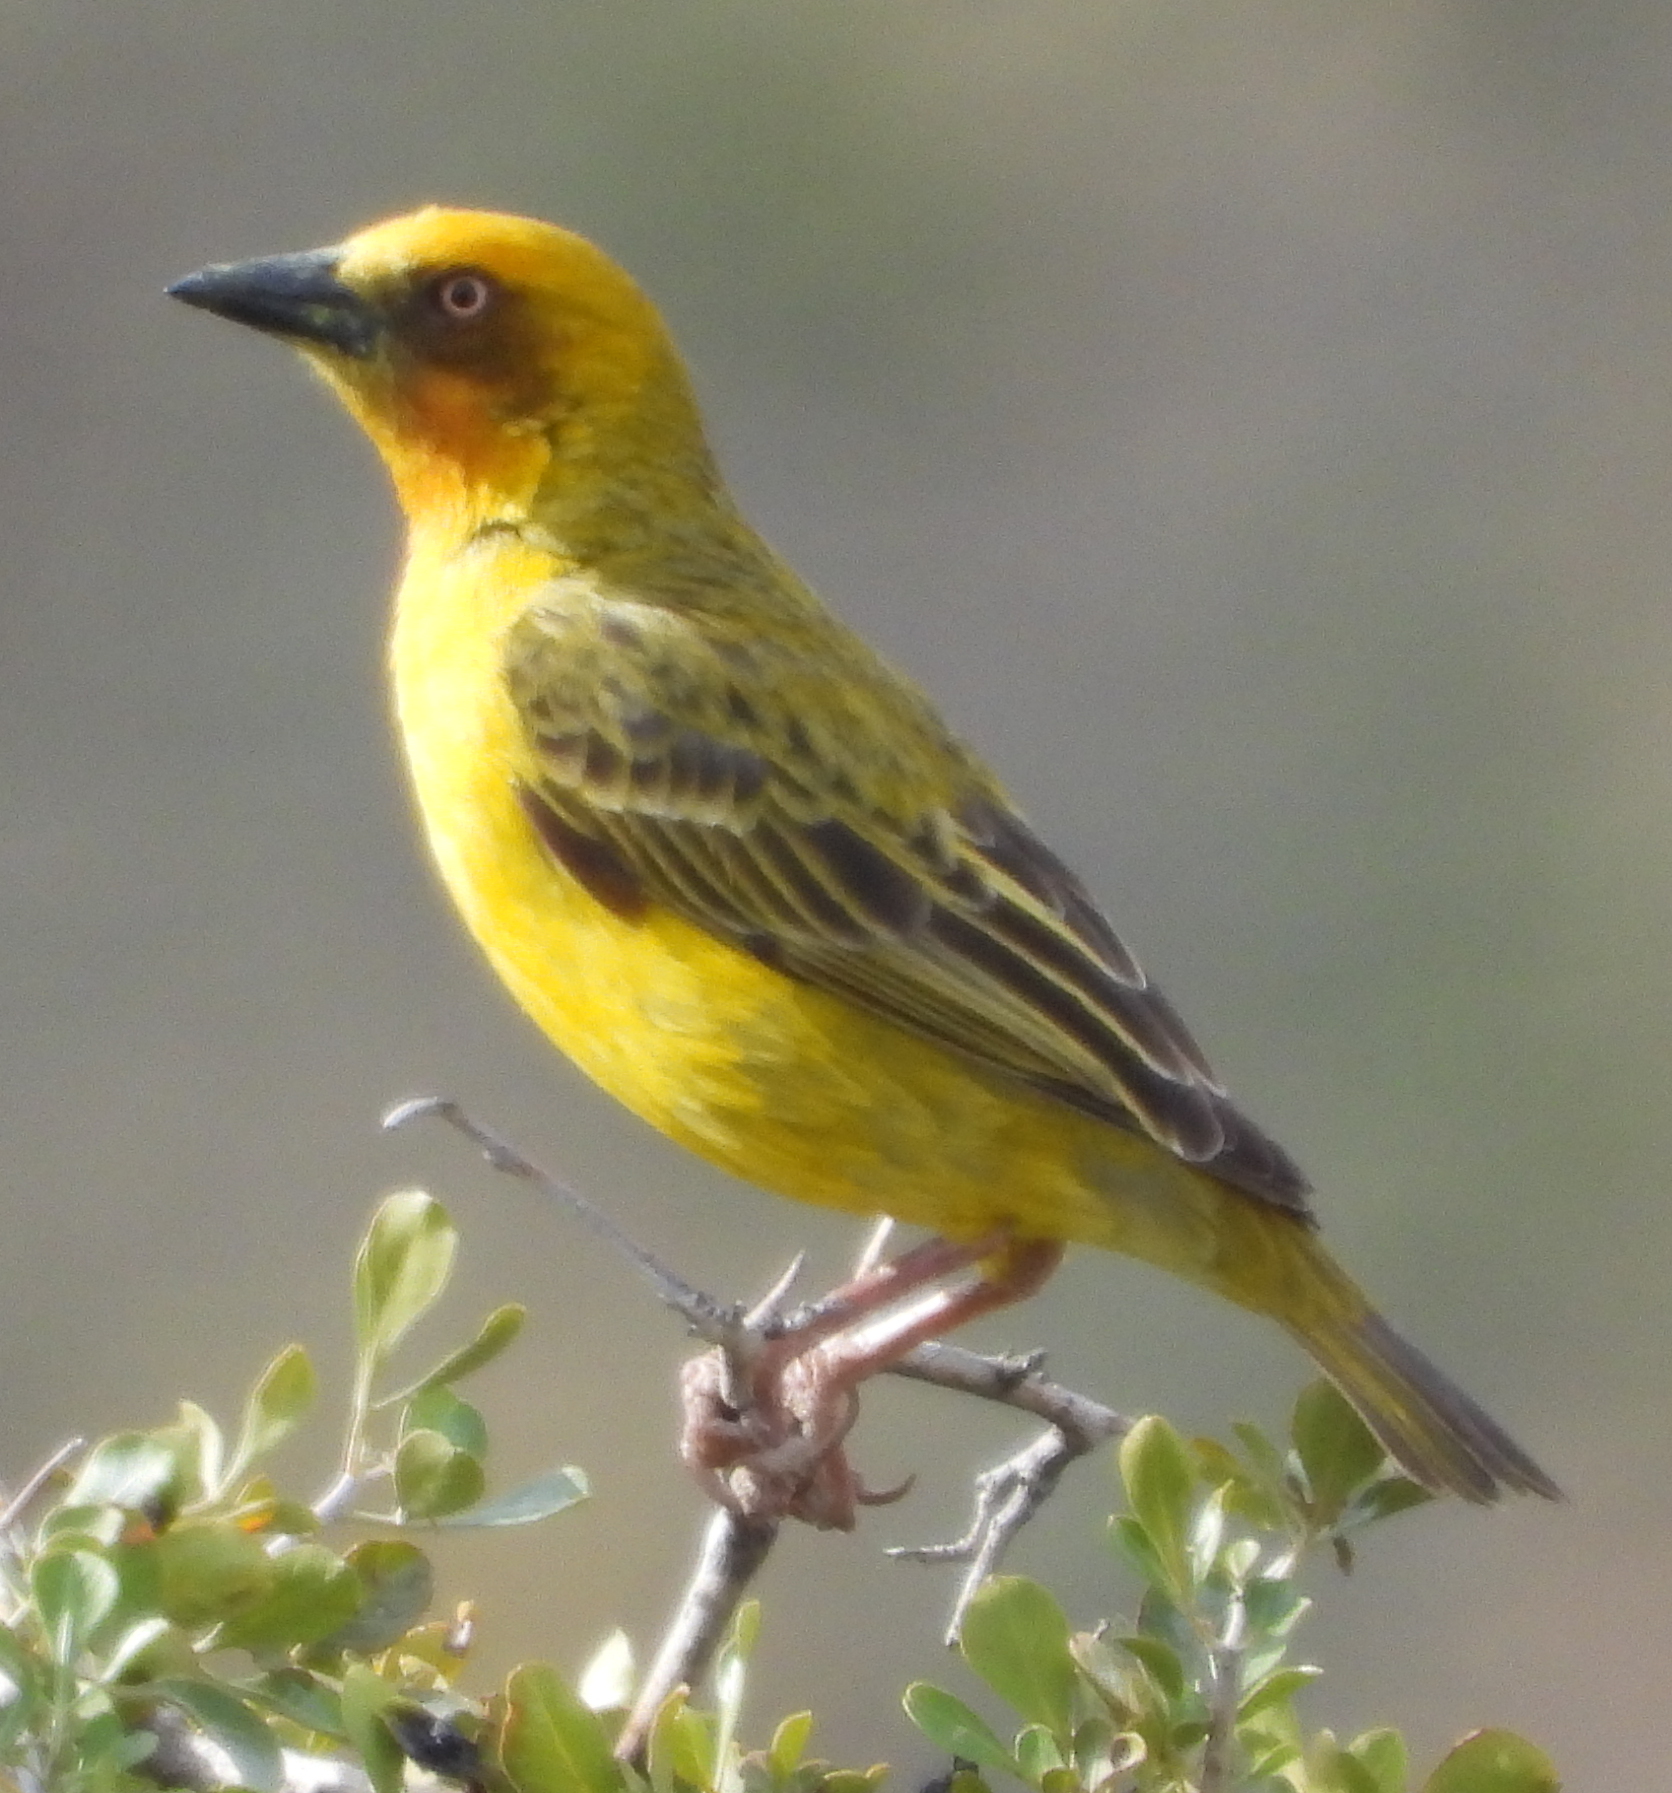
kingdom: Animalia
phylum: Chordata
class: Aves
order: Passeriformes
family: Ploceidae
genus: Ploceus
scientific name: Ploceus capensis
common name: Cape weaver
